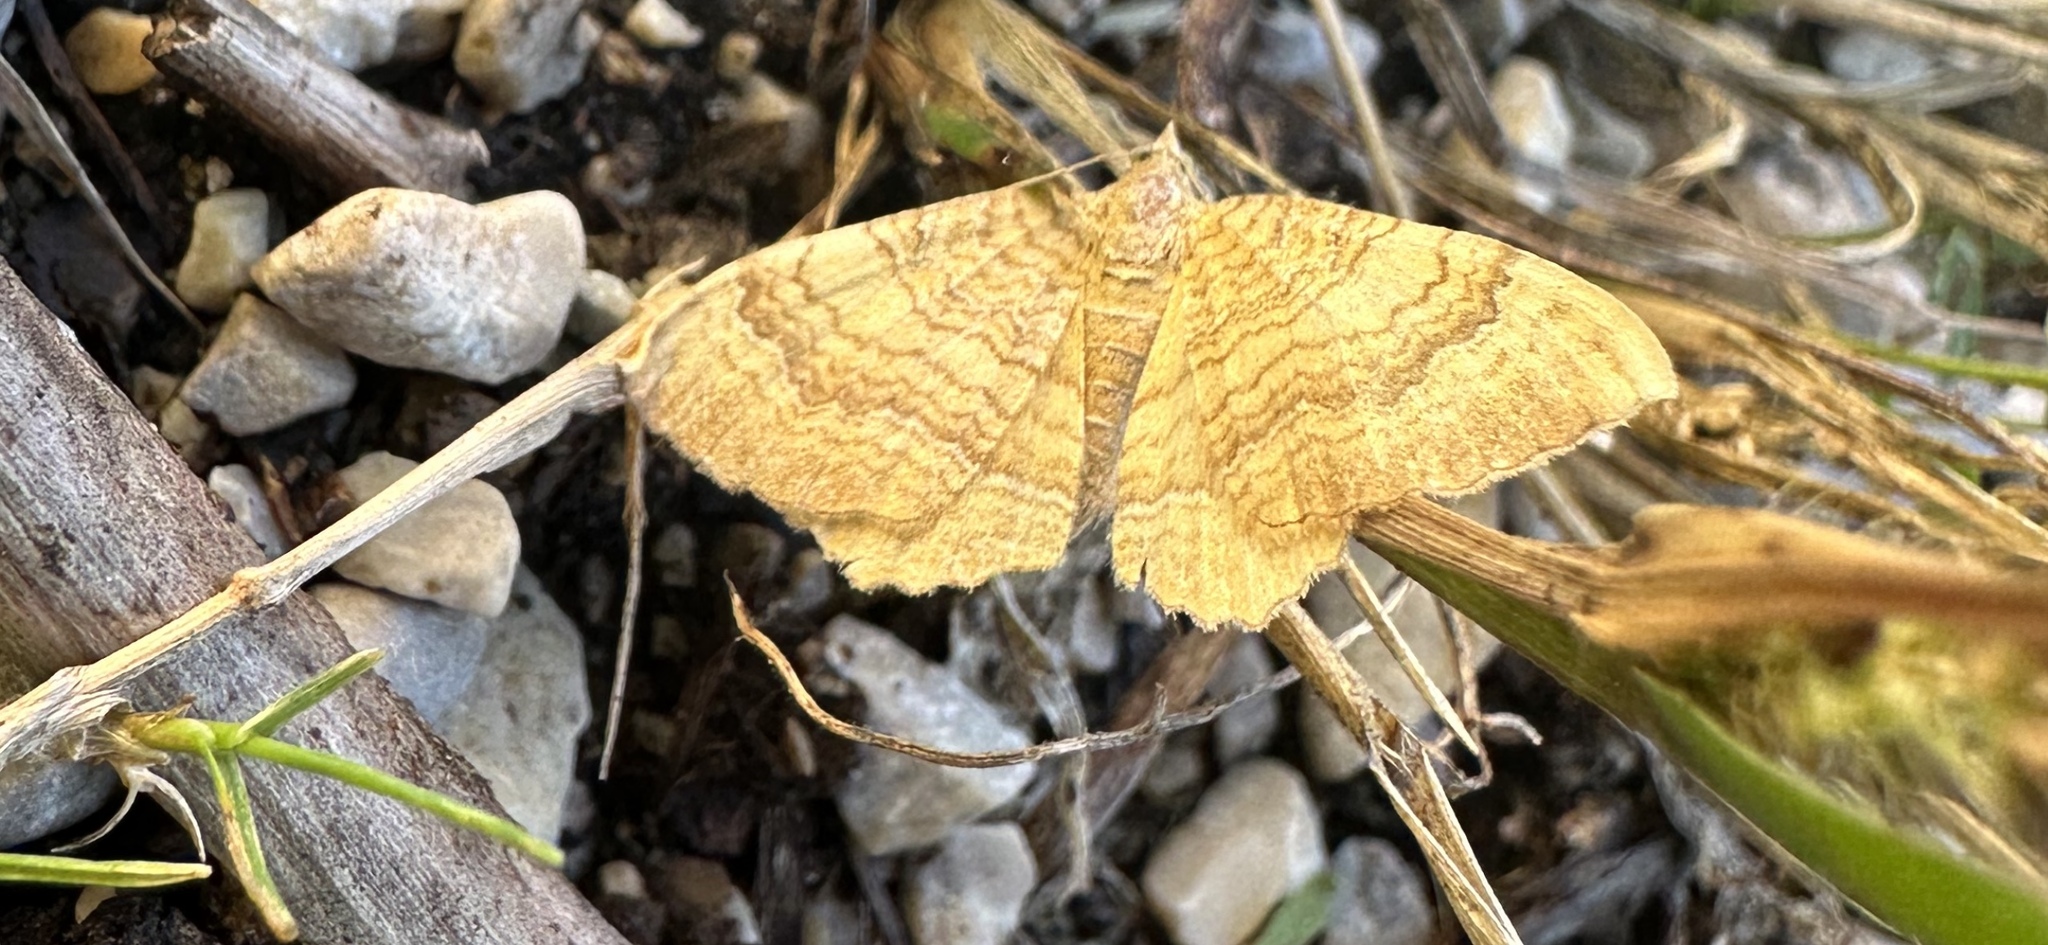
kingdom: Animalia
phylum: Arthropoda
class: Insecta
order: Lepidoptera
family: Geometridae
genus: Camptogramma
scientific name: Camptogramma bilineata
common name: Yellow shell
